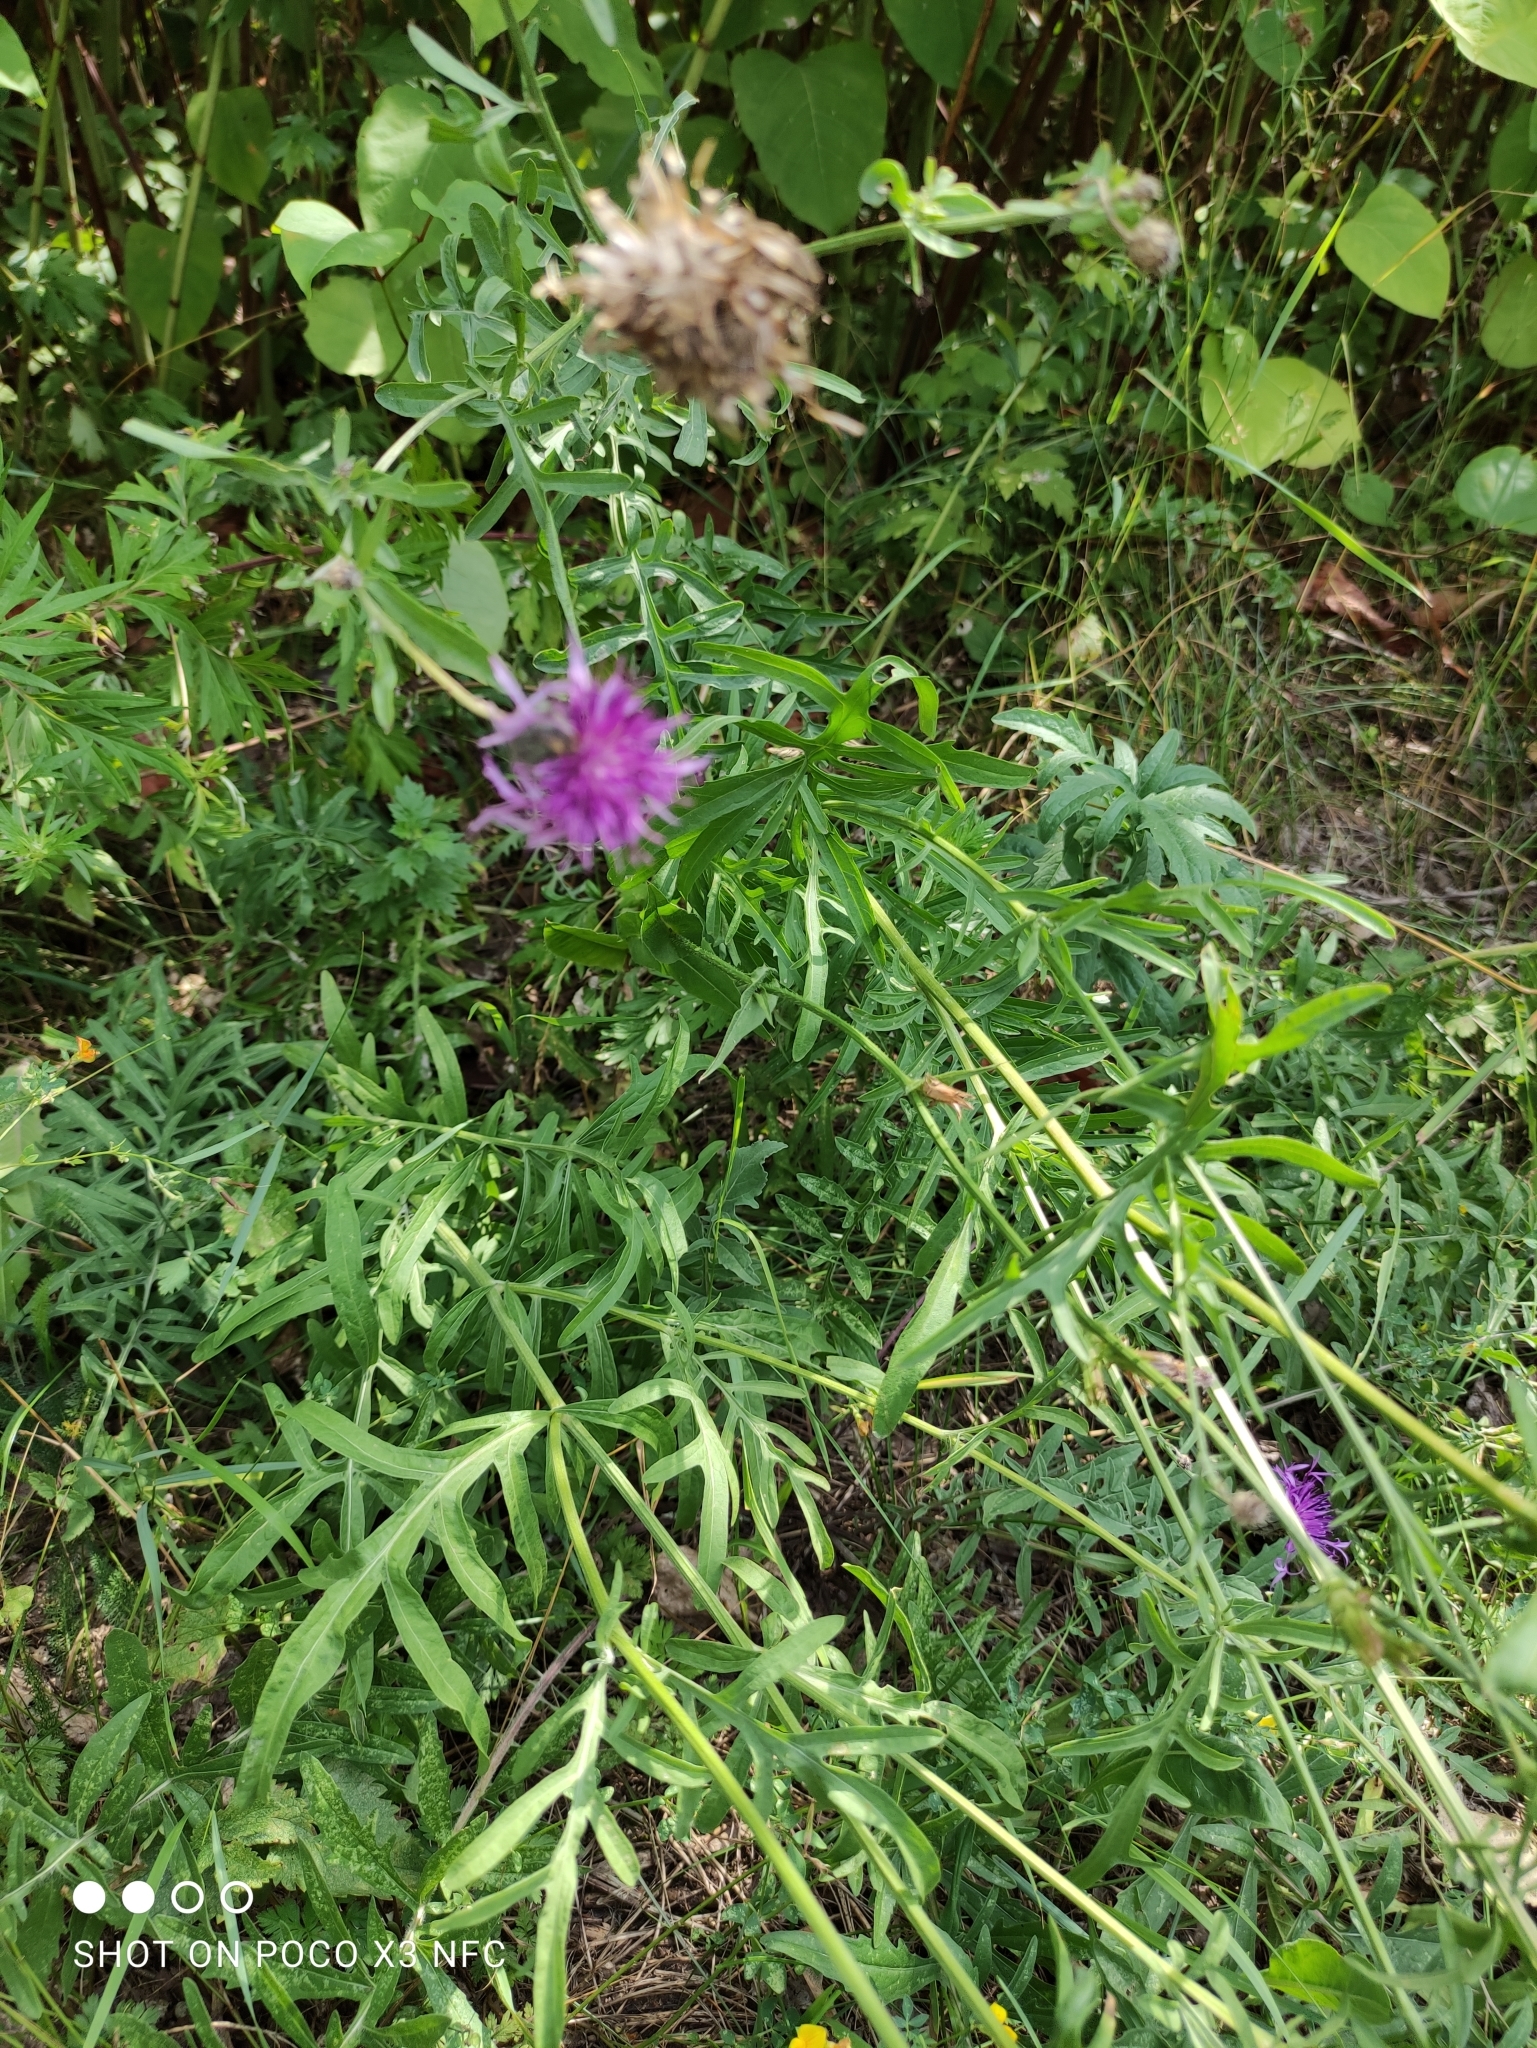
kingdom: Plantae
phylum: Tracheophyta
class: Magnoliopsida
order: Asterales
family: Asteraceae
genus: Centaurea
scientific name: Centaurea scabiosa
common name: Greater knapweed
